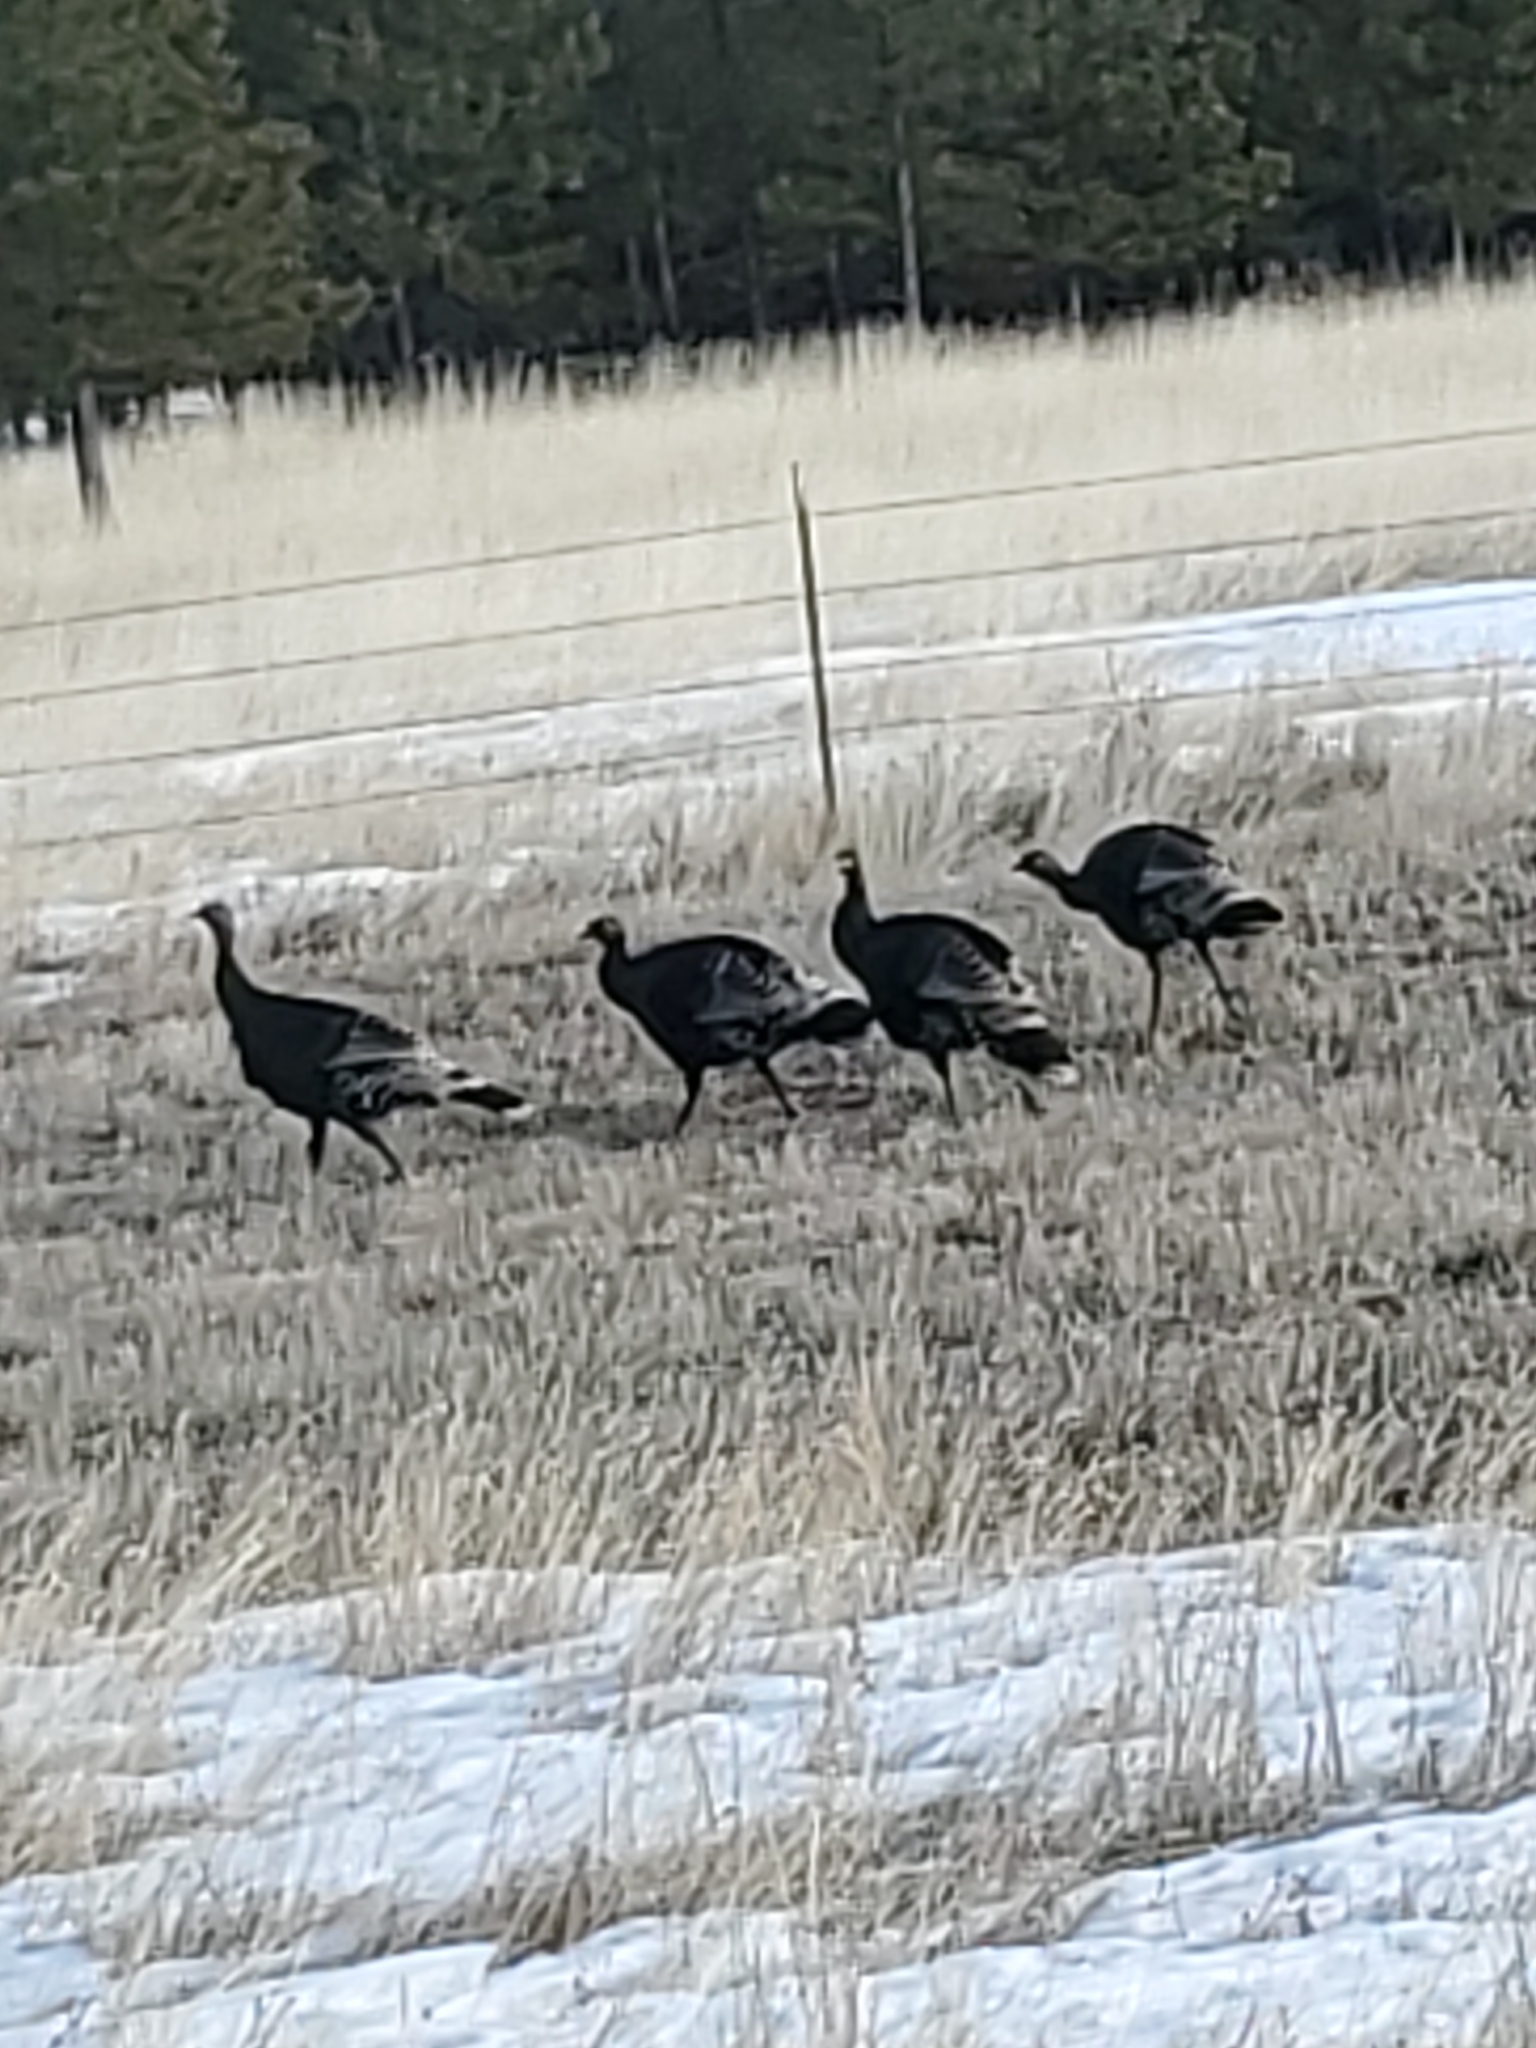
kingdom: Animalia
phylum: Chordata
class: Aves
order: Galliformes
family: Phasianidae
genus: Meleagris
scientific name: Meleagris gallopavo
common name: Wild turkey
